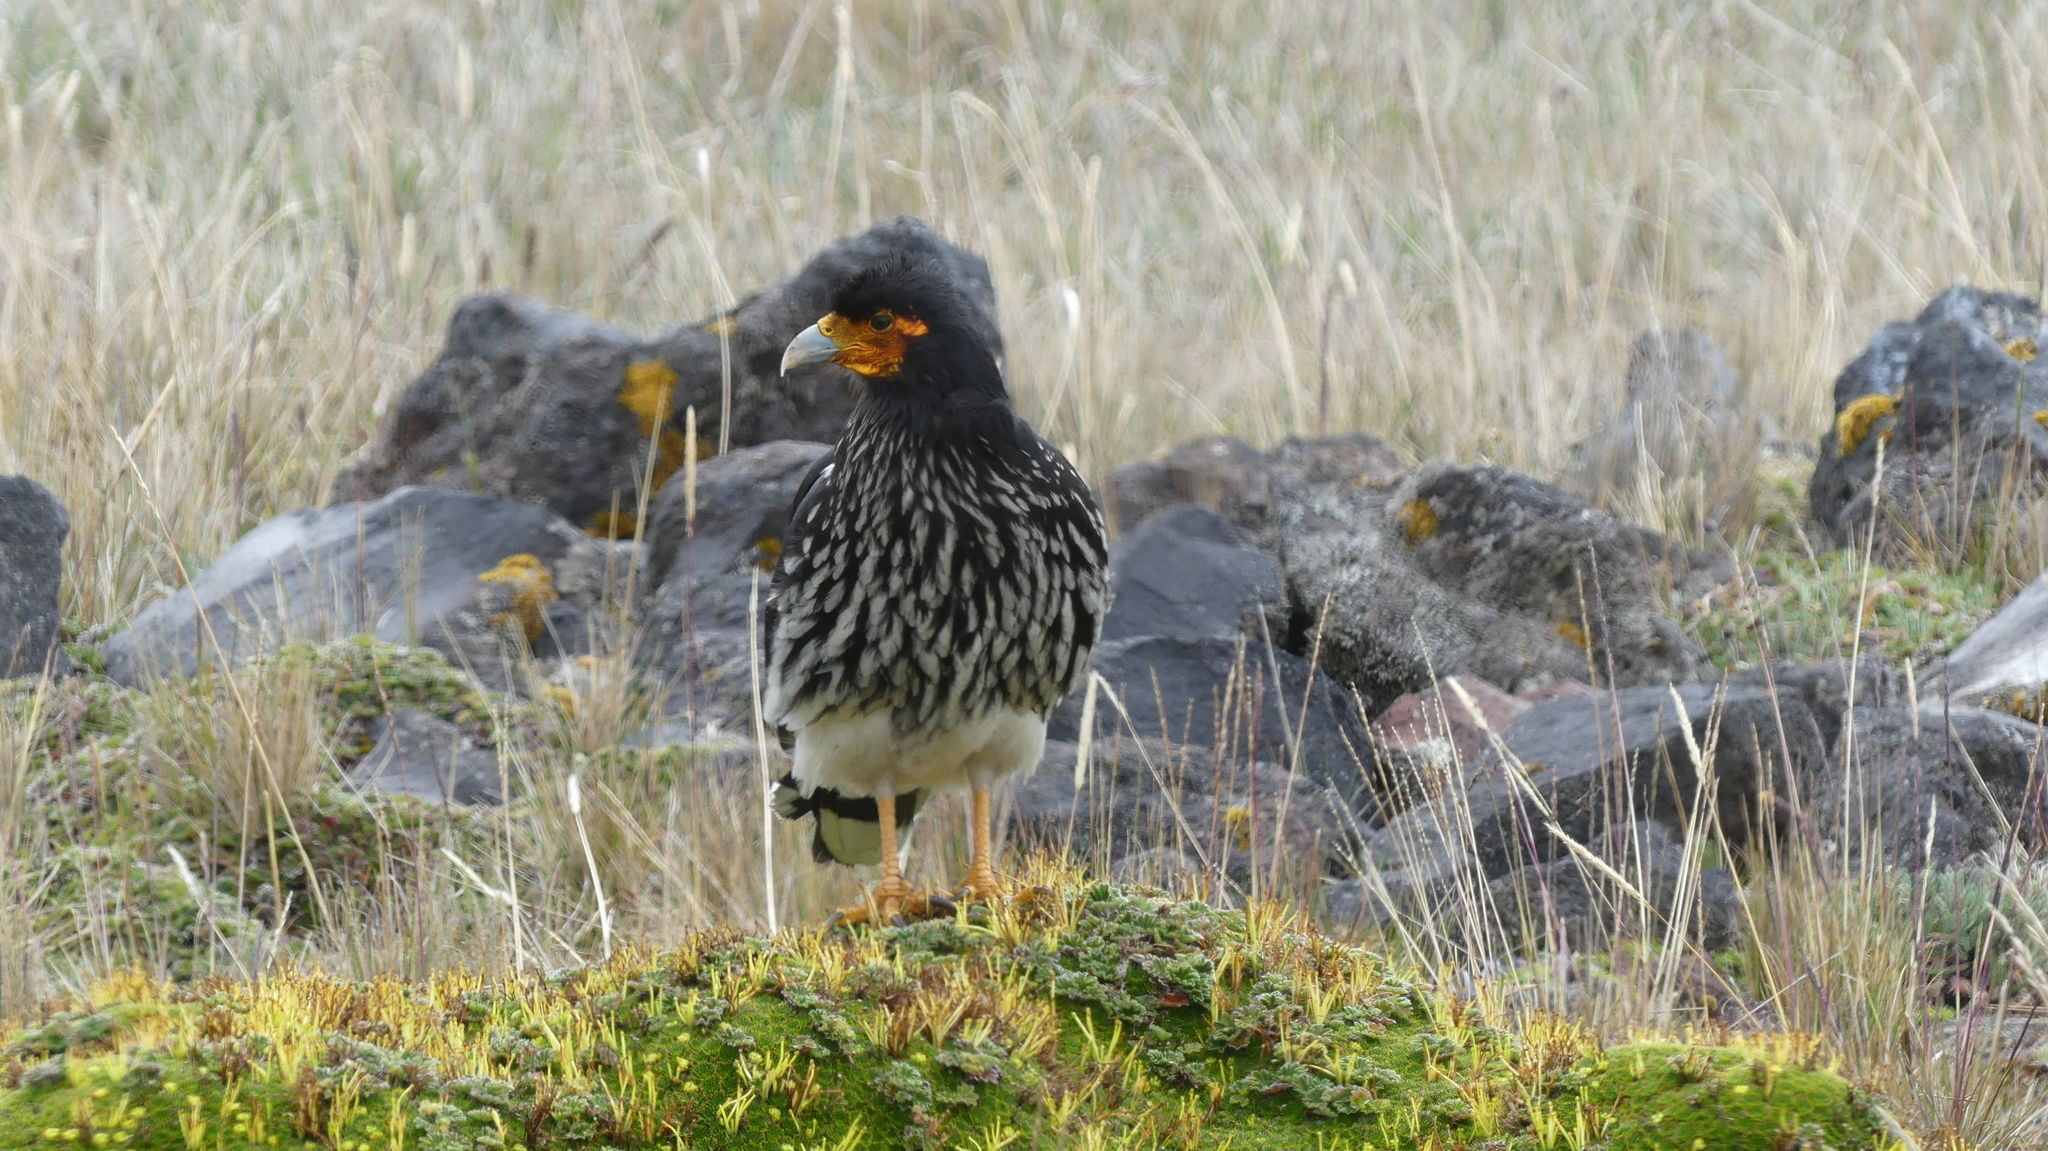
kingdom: Animalia
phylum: Chordata
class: Aves
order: Falconiformes
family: Falconidae
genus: Daptrius
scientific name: Daptrius
